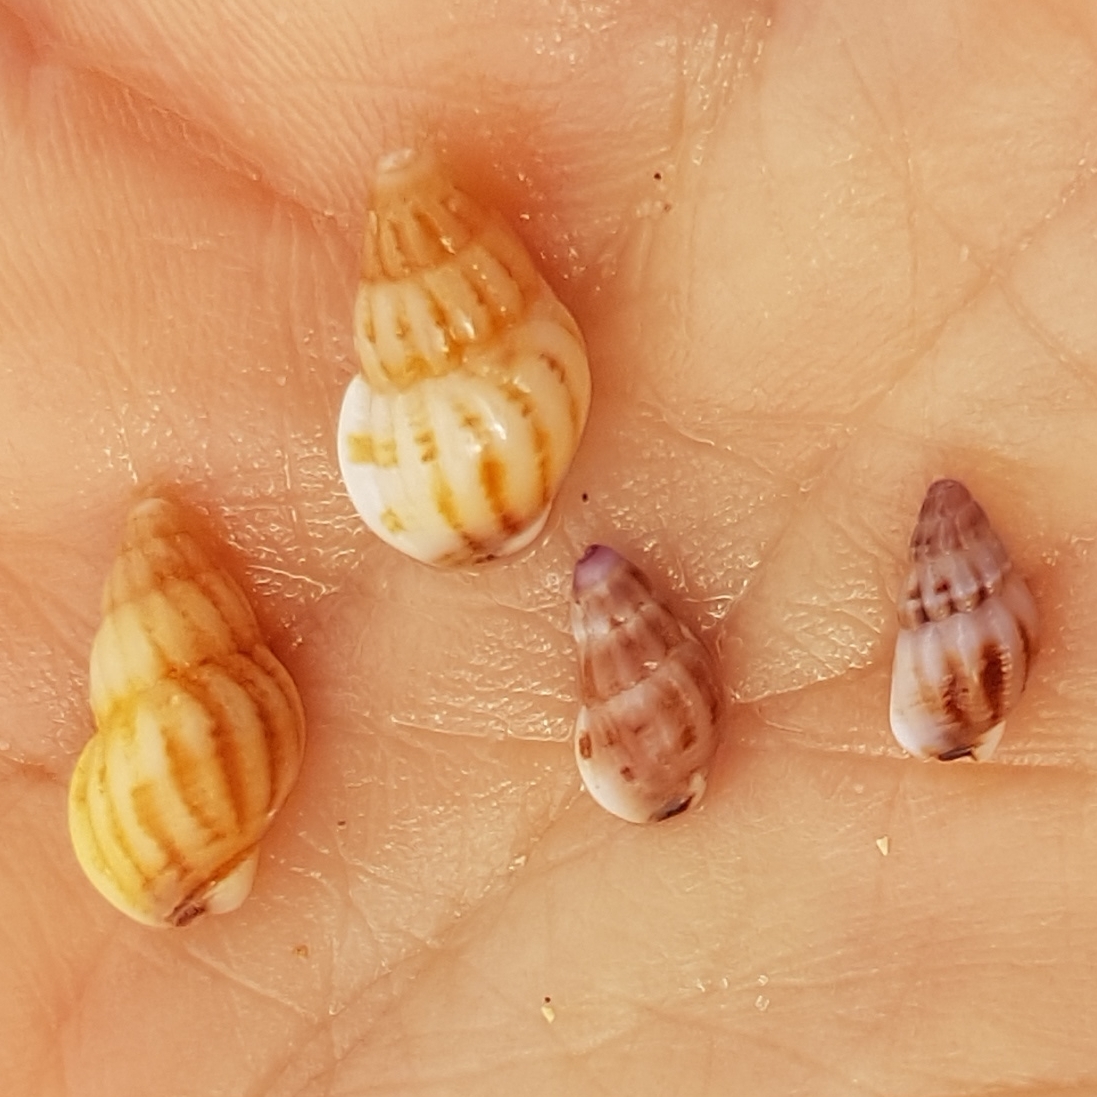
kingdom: Animalia
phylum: Mollusca
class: Gastropoda
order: Neogastropoda
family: Nassariidae
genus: Tritia
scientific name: Tritia incrassata
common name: Thick-lipped dog whelk
